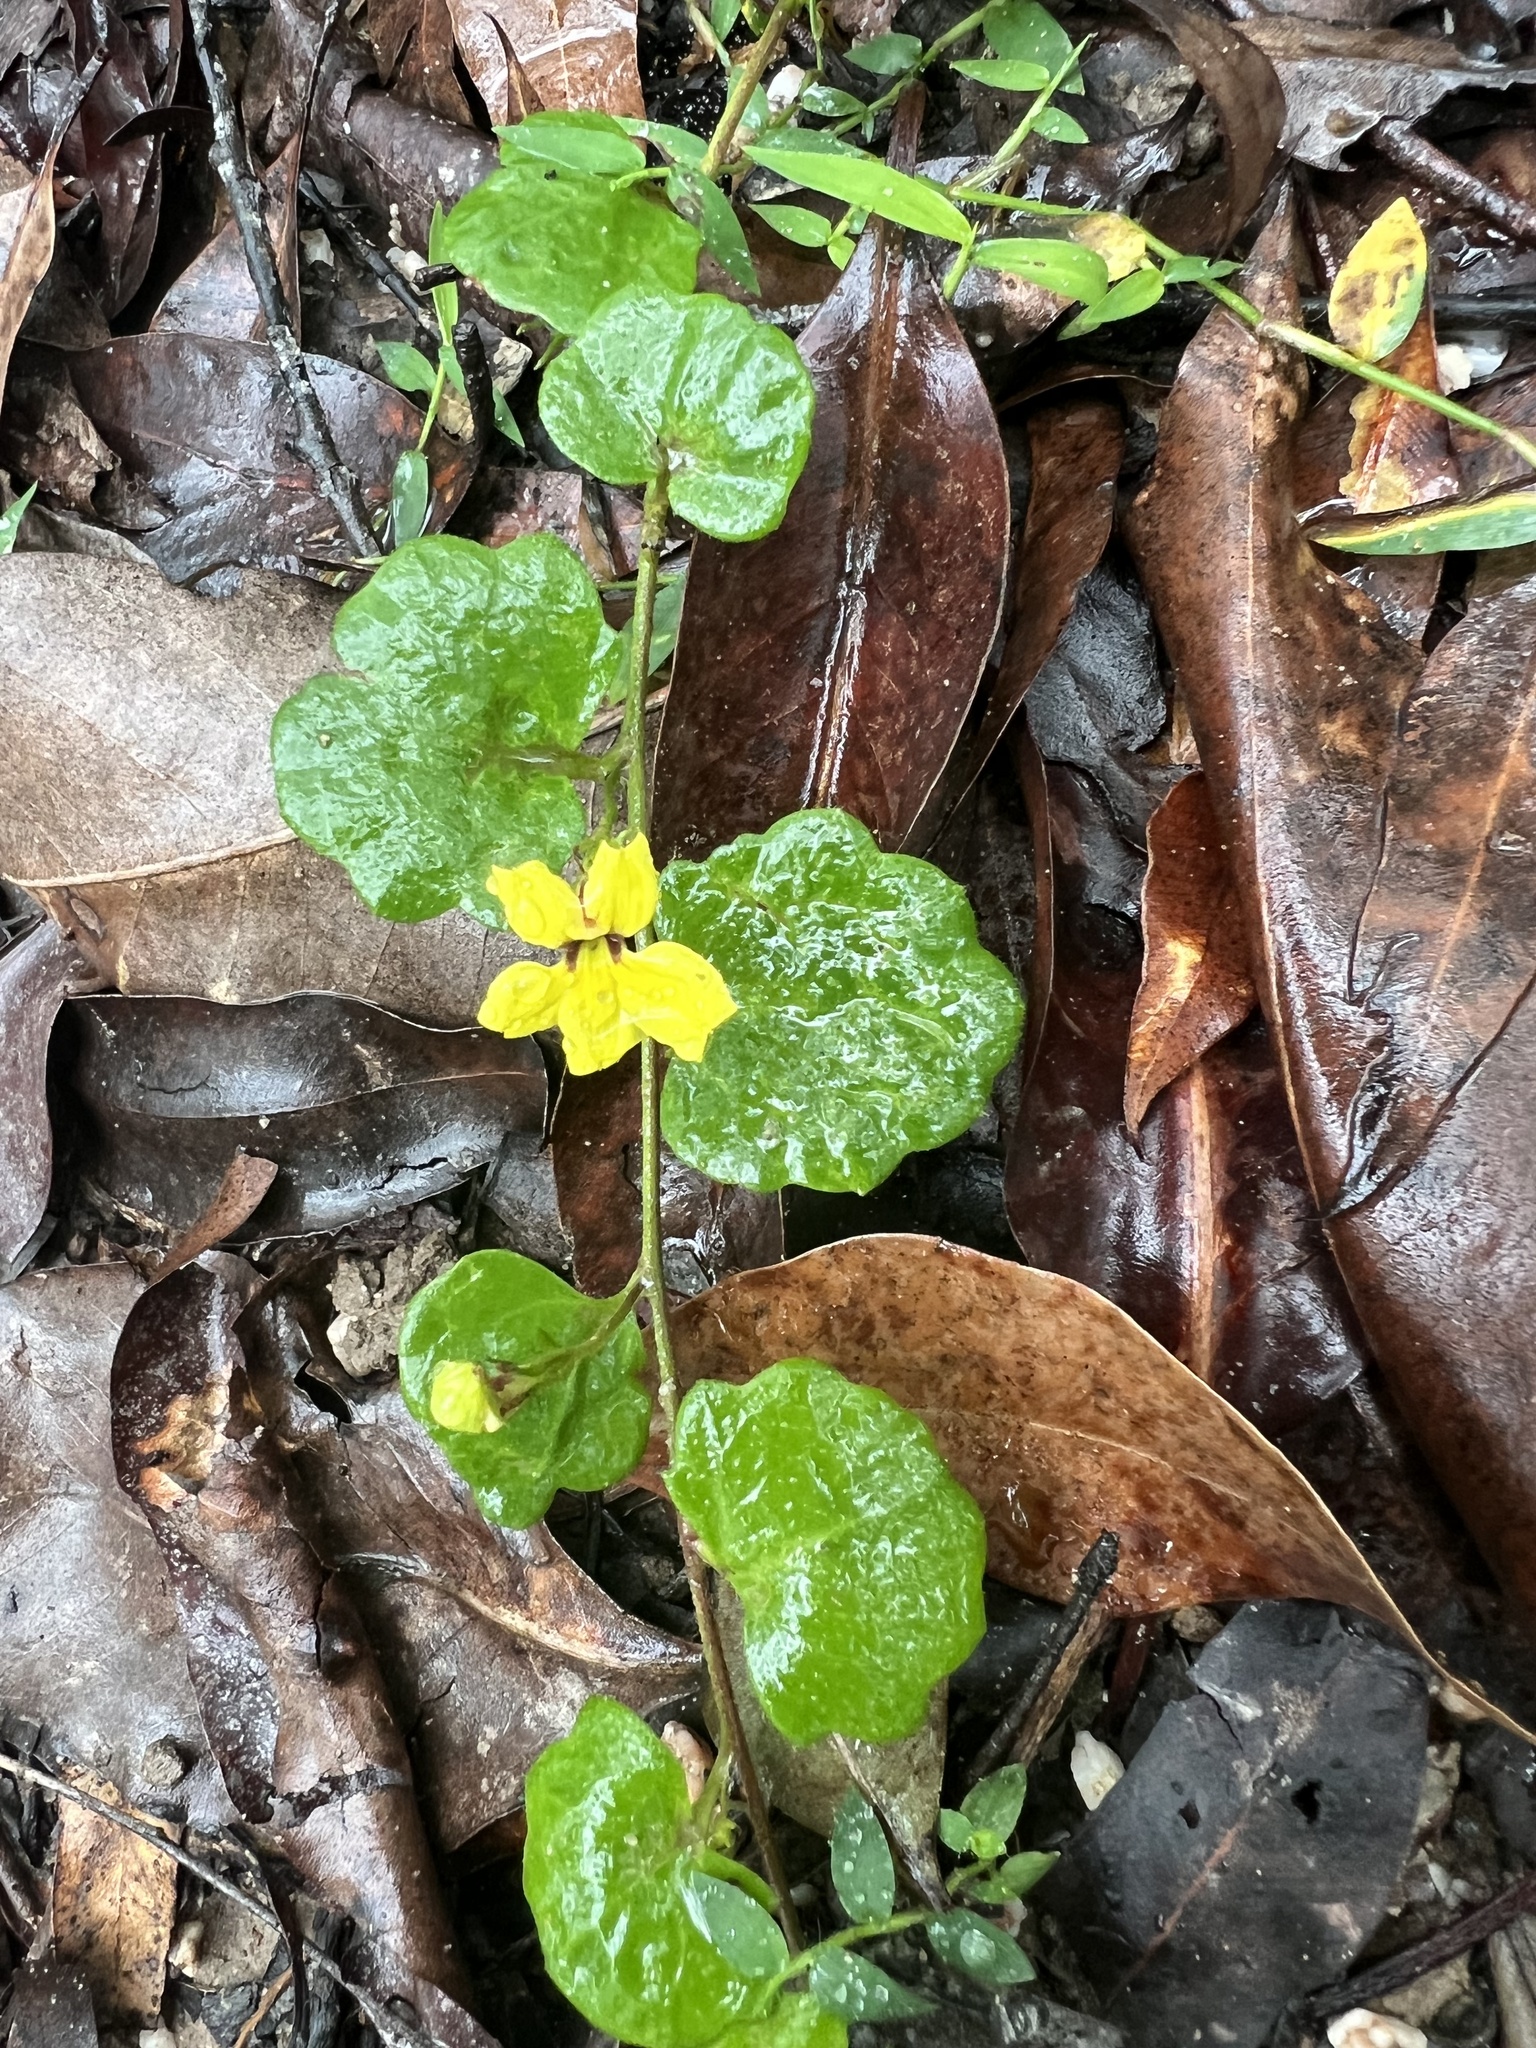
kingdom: Plantae
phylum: Tracheophyta
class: Magnoliopsida
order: Asterales
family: Goodeniaceae
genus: Goodenia
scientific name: Goodenia rotundifolia
